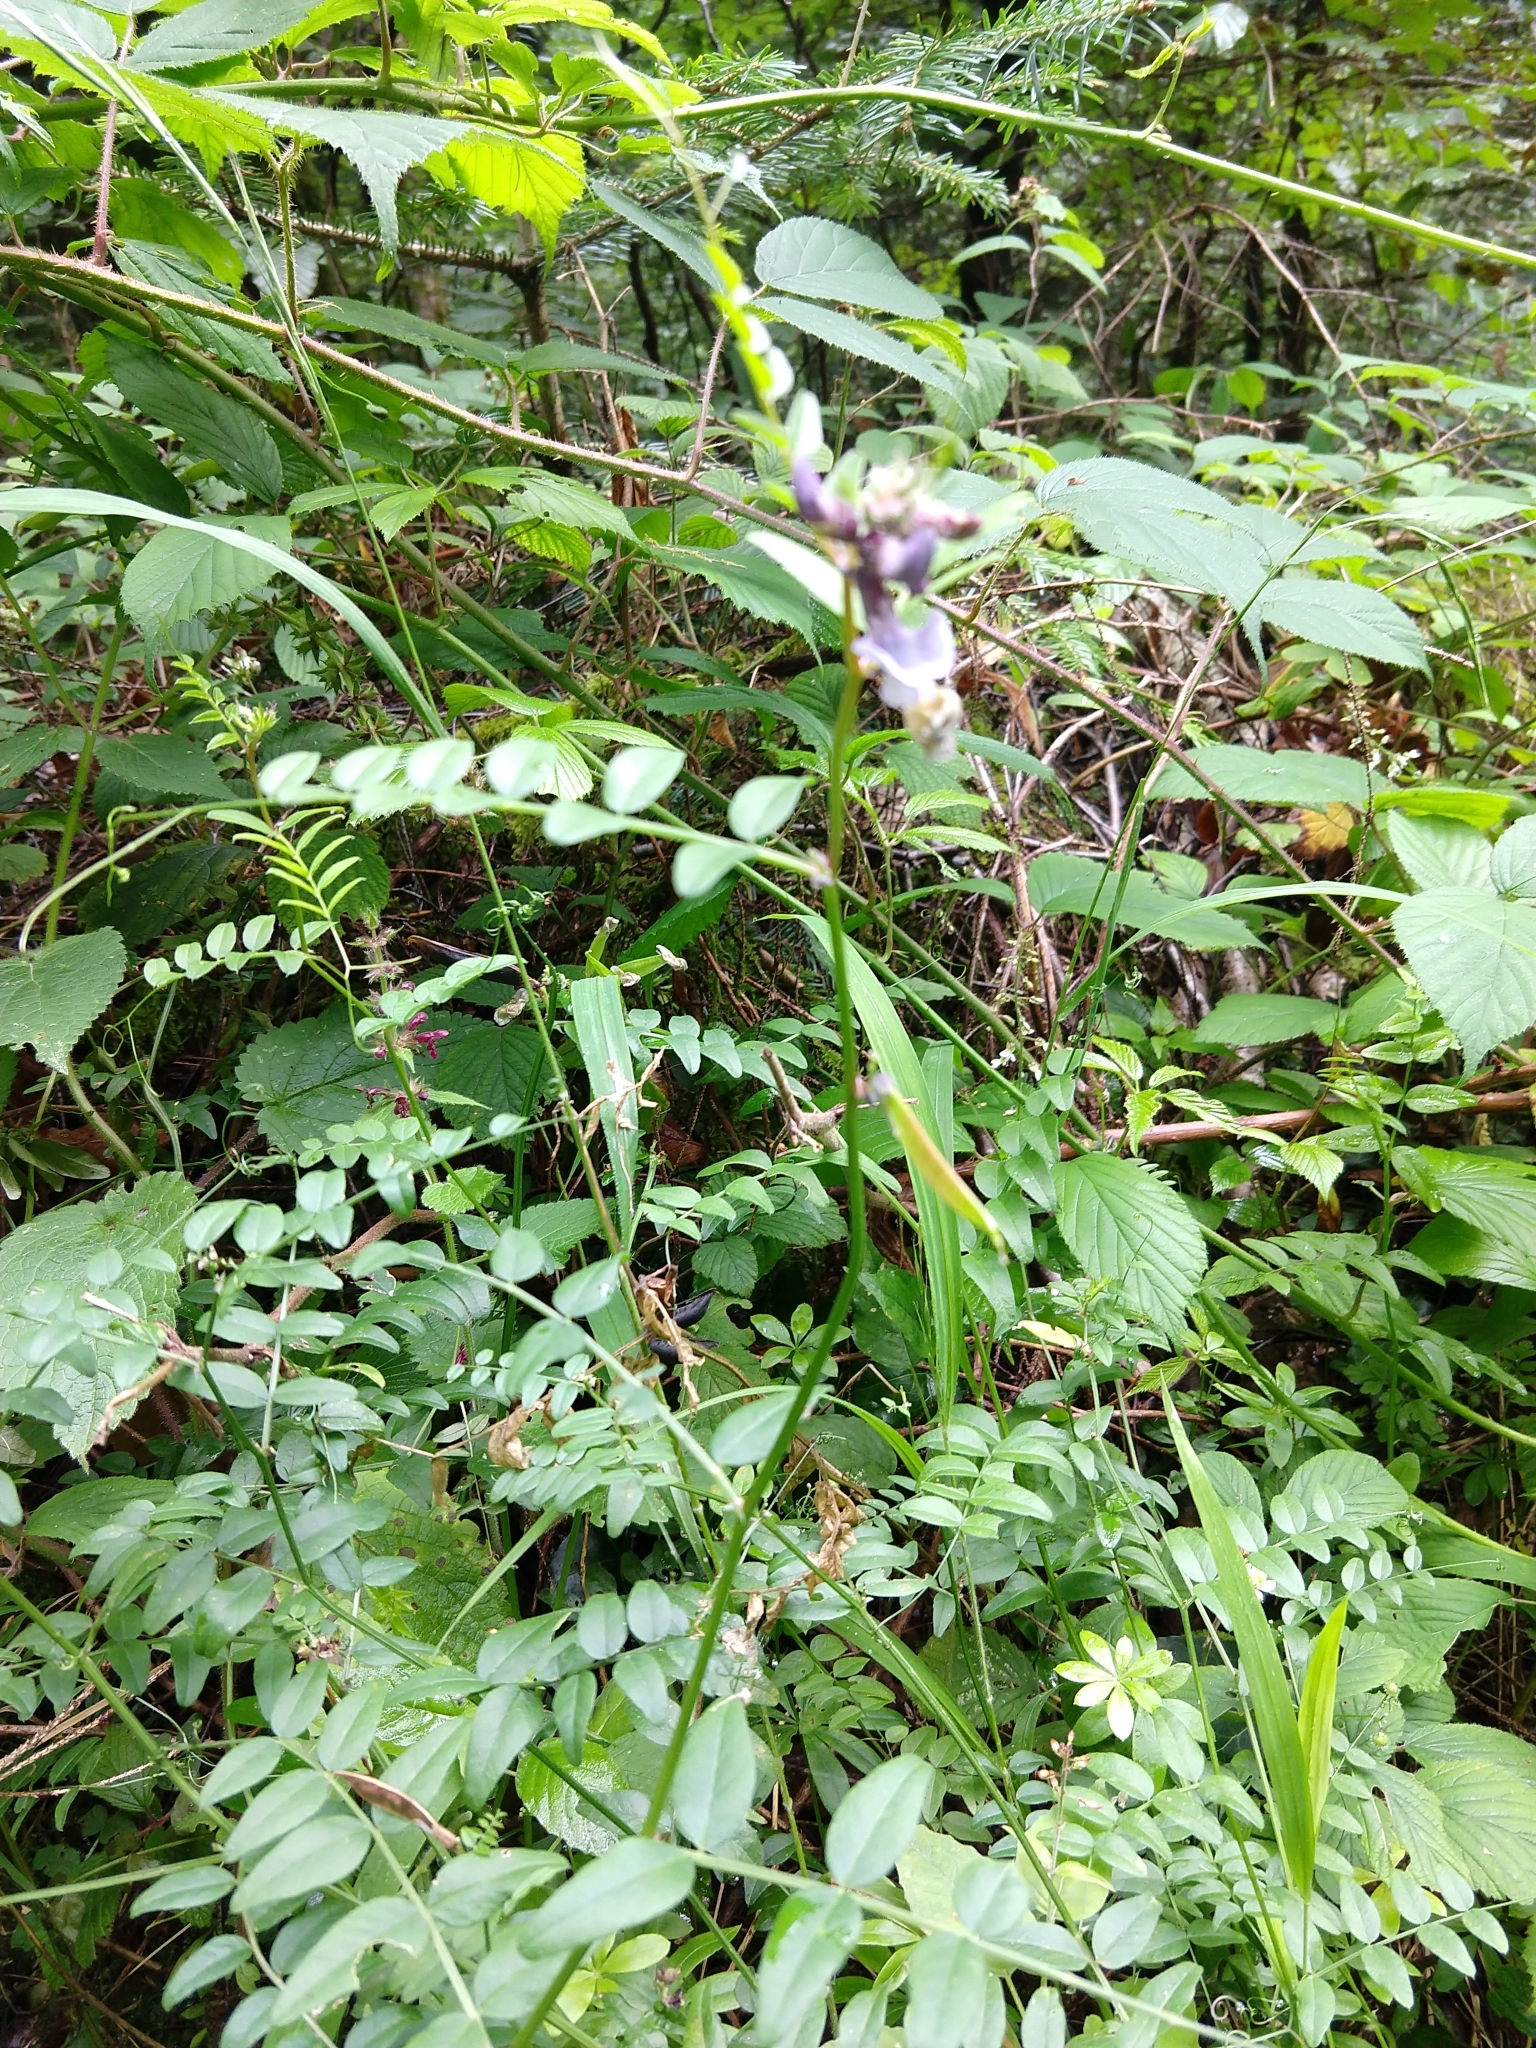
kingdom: Plantae
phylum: Tracheophyta
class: Magnoliopsida
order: Fabales
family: Fabaceae
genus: Vicia
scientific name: Vicia sepium
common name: Bush vetch
